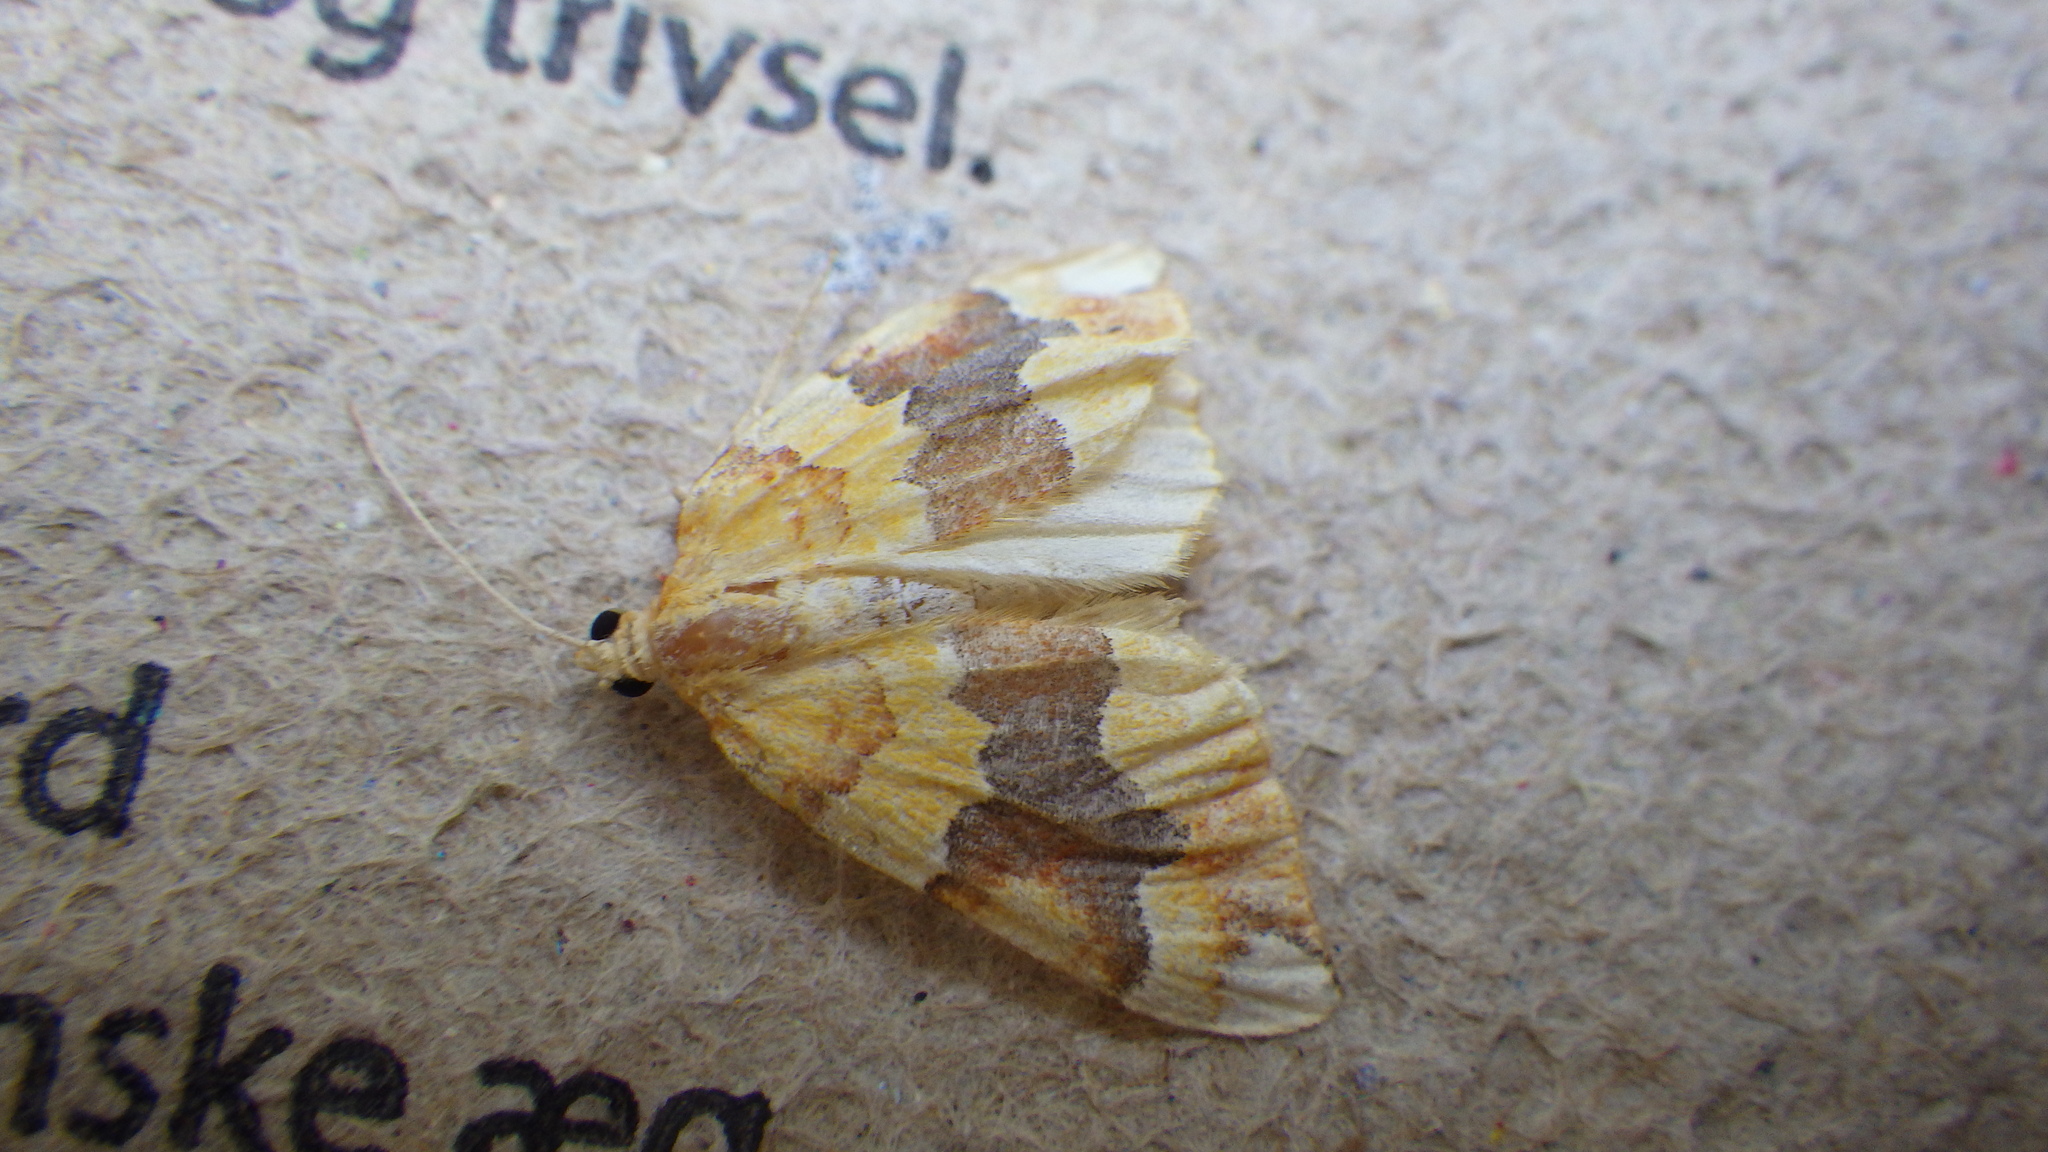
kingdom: Animalia
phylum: Arthropoda
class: Insecta
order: Lepidoptera
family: Geometridae
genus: Cidaria
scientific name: Cidaria fulvata
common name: Barred yellow
